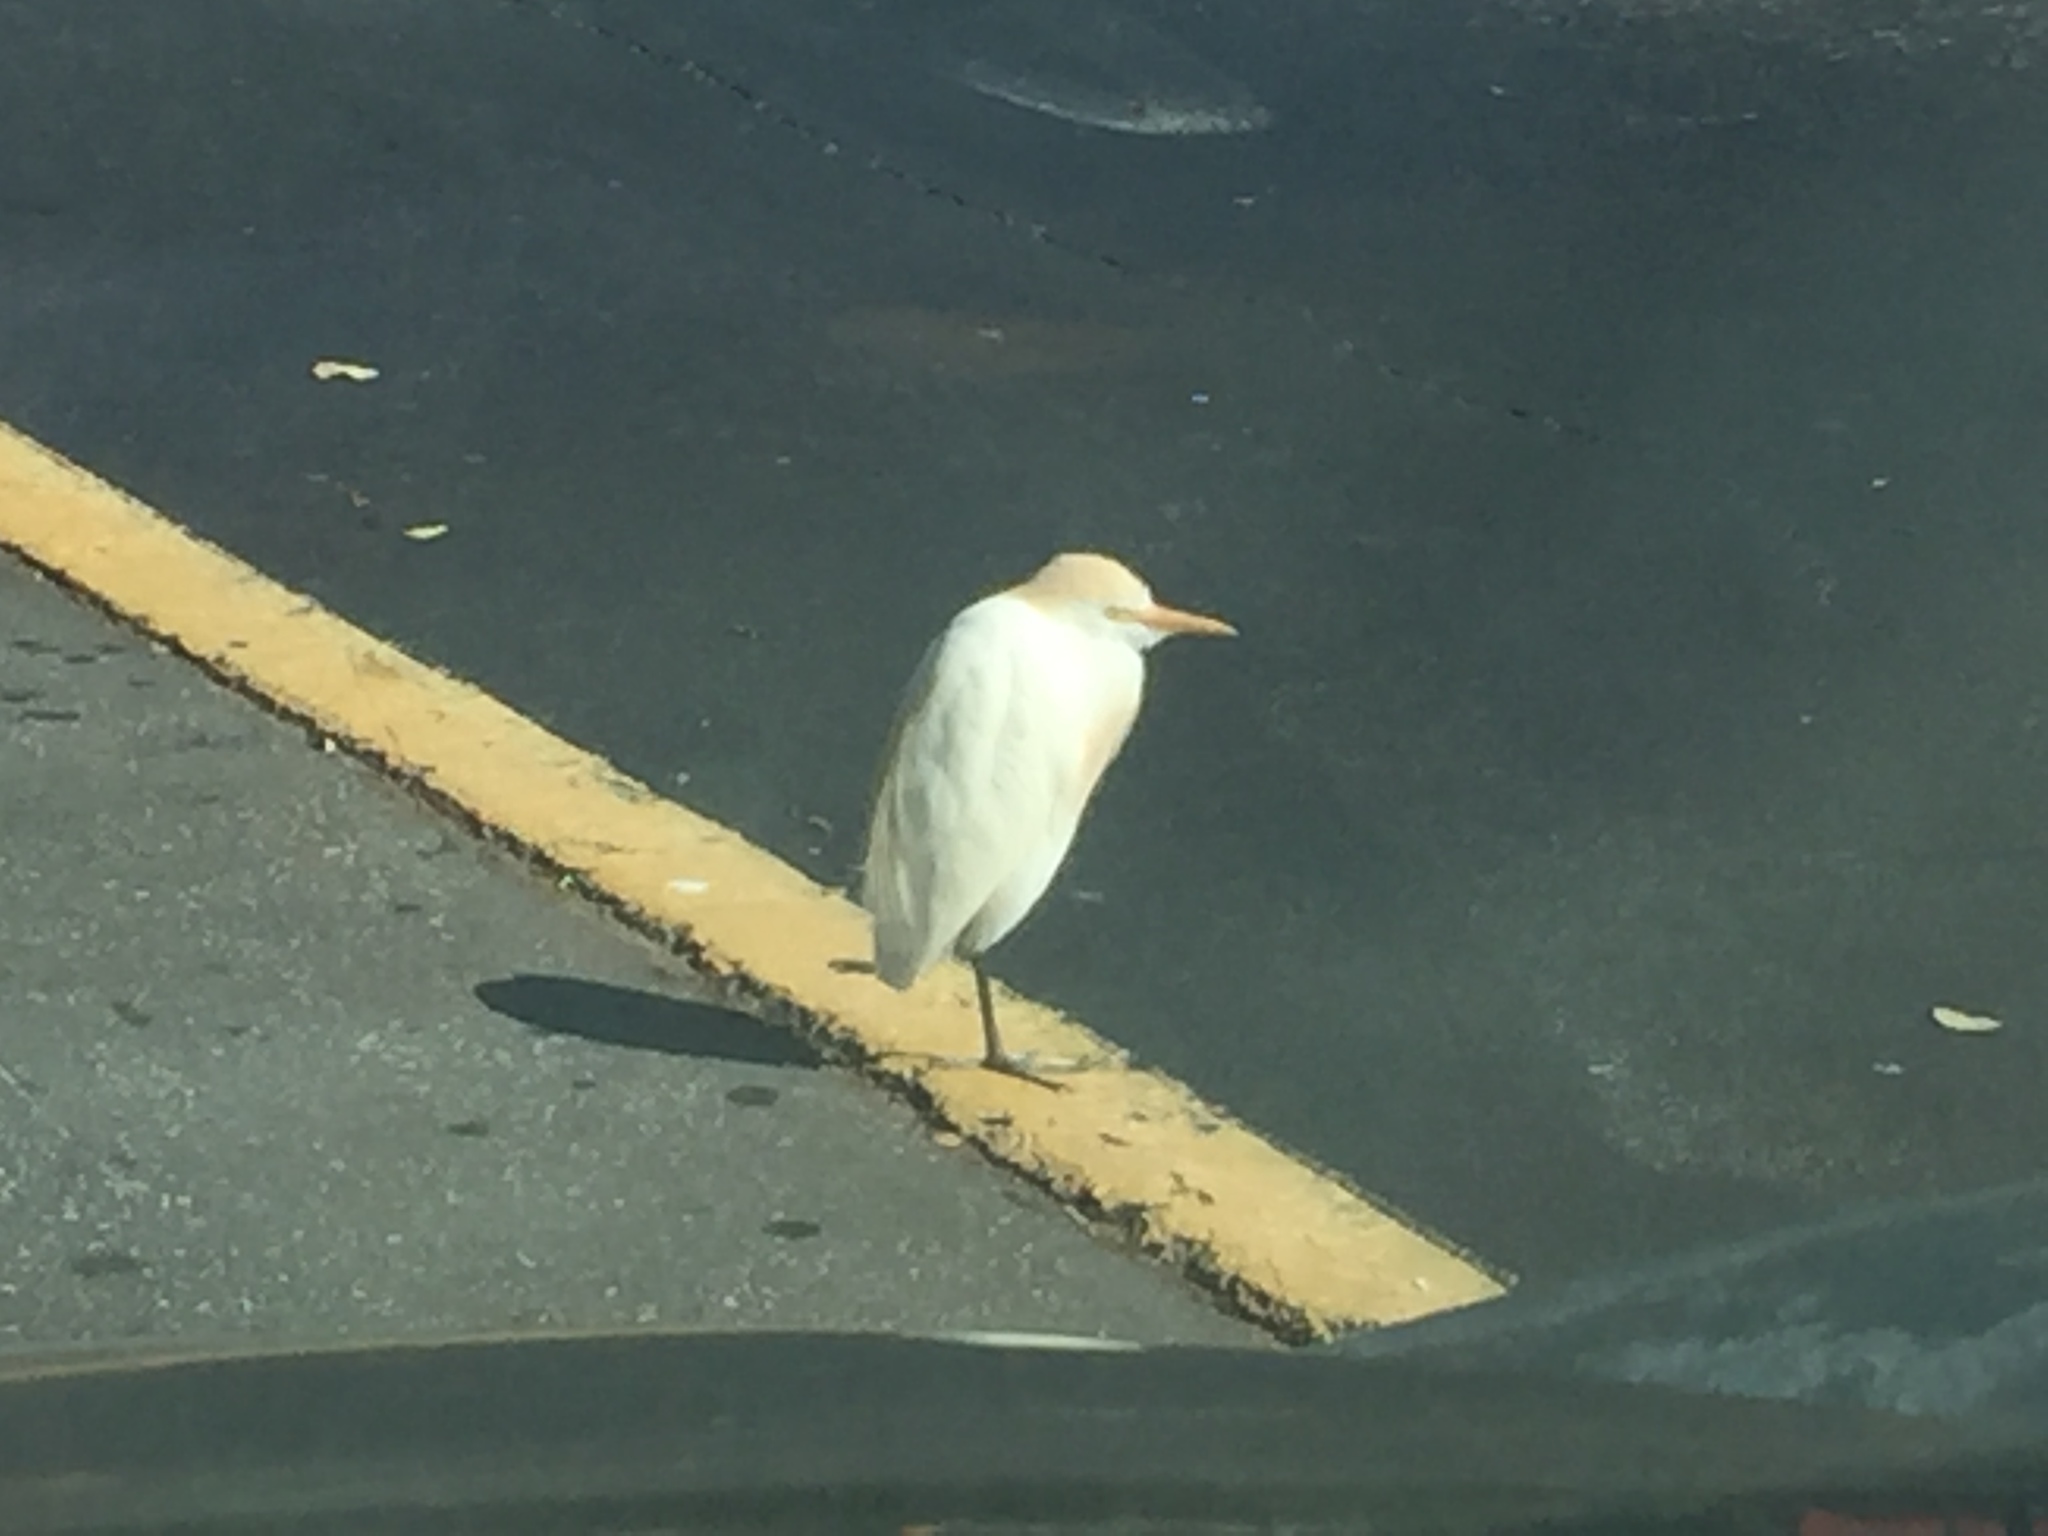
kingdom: Animalia
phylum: Chordata
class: Aves
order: Pelecaniformes
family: Ardeidae
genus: Bubulcus
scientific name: Bubulcus ibis
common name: Cattle egret
